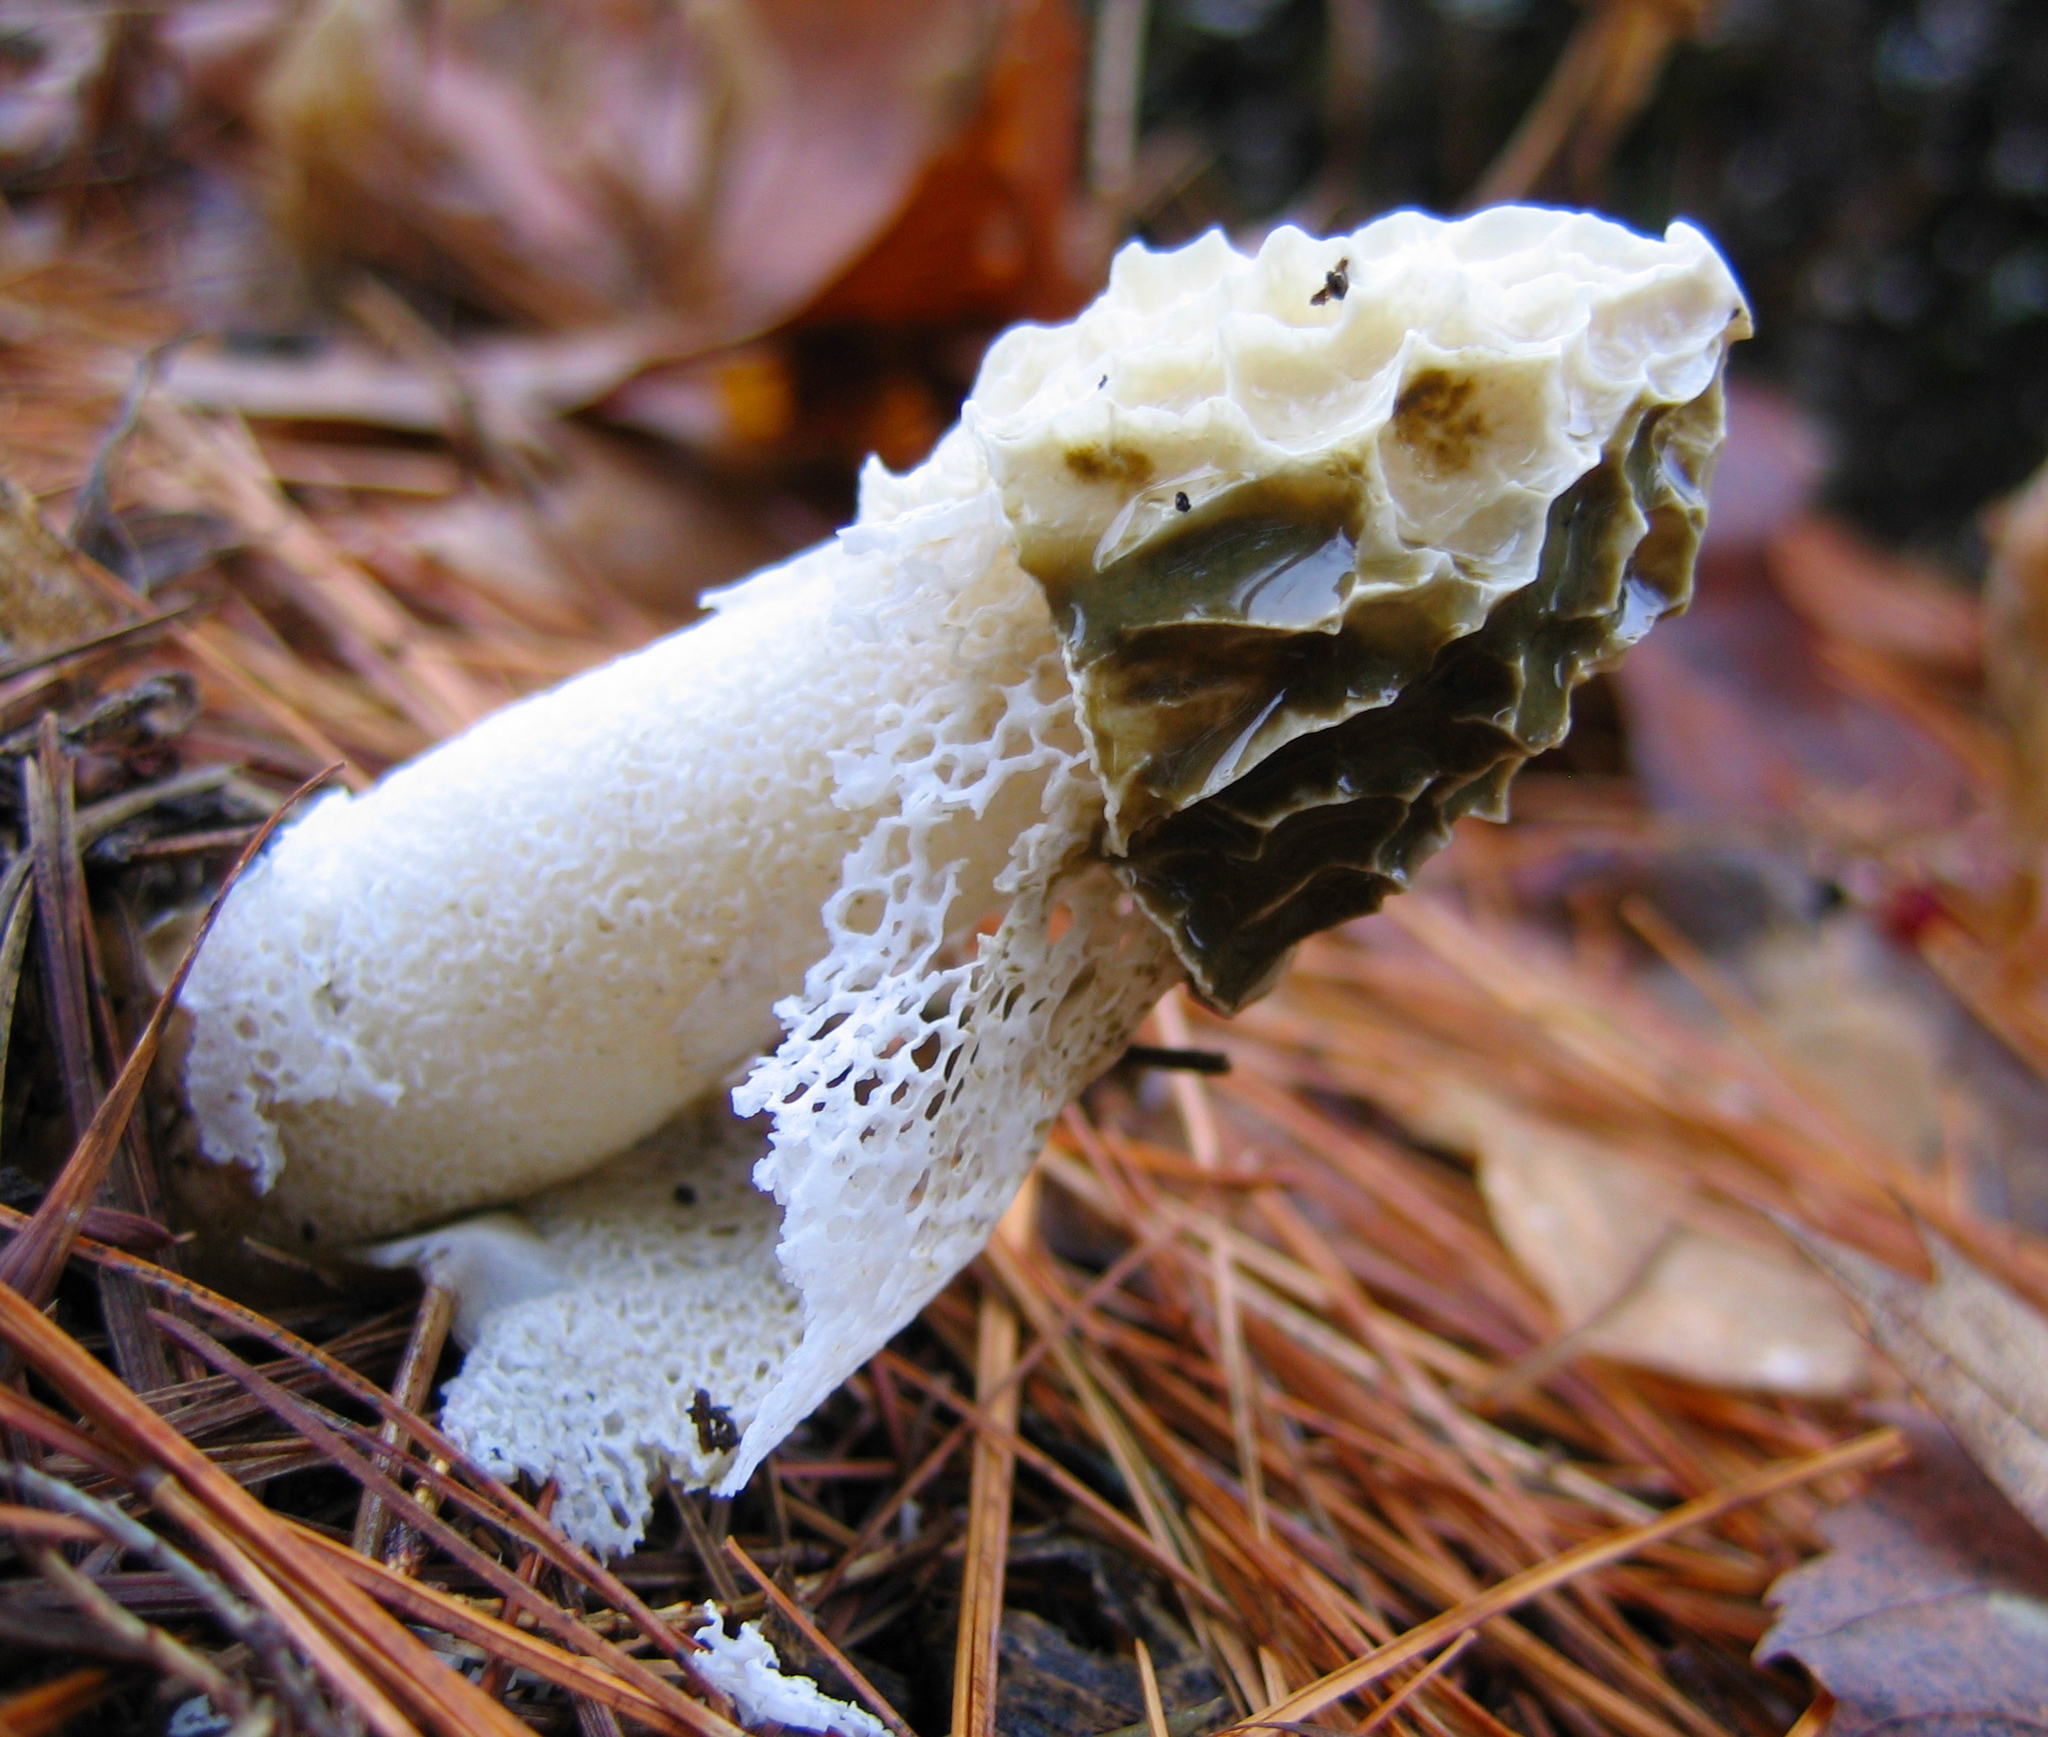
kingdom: Fungi
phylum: Basidiomycota
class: Agaricomycetes
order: Phallales
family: Phallaceae
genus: Phallus
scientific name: Phallus indusiatus
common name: Bridal veil stinkhorn
